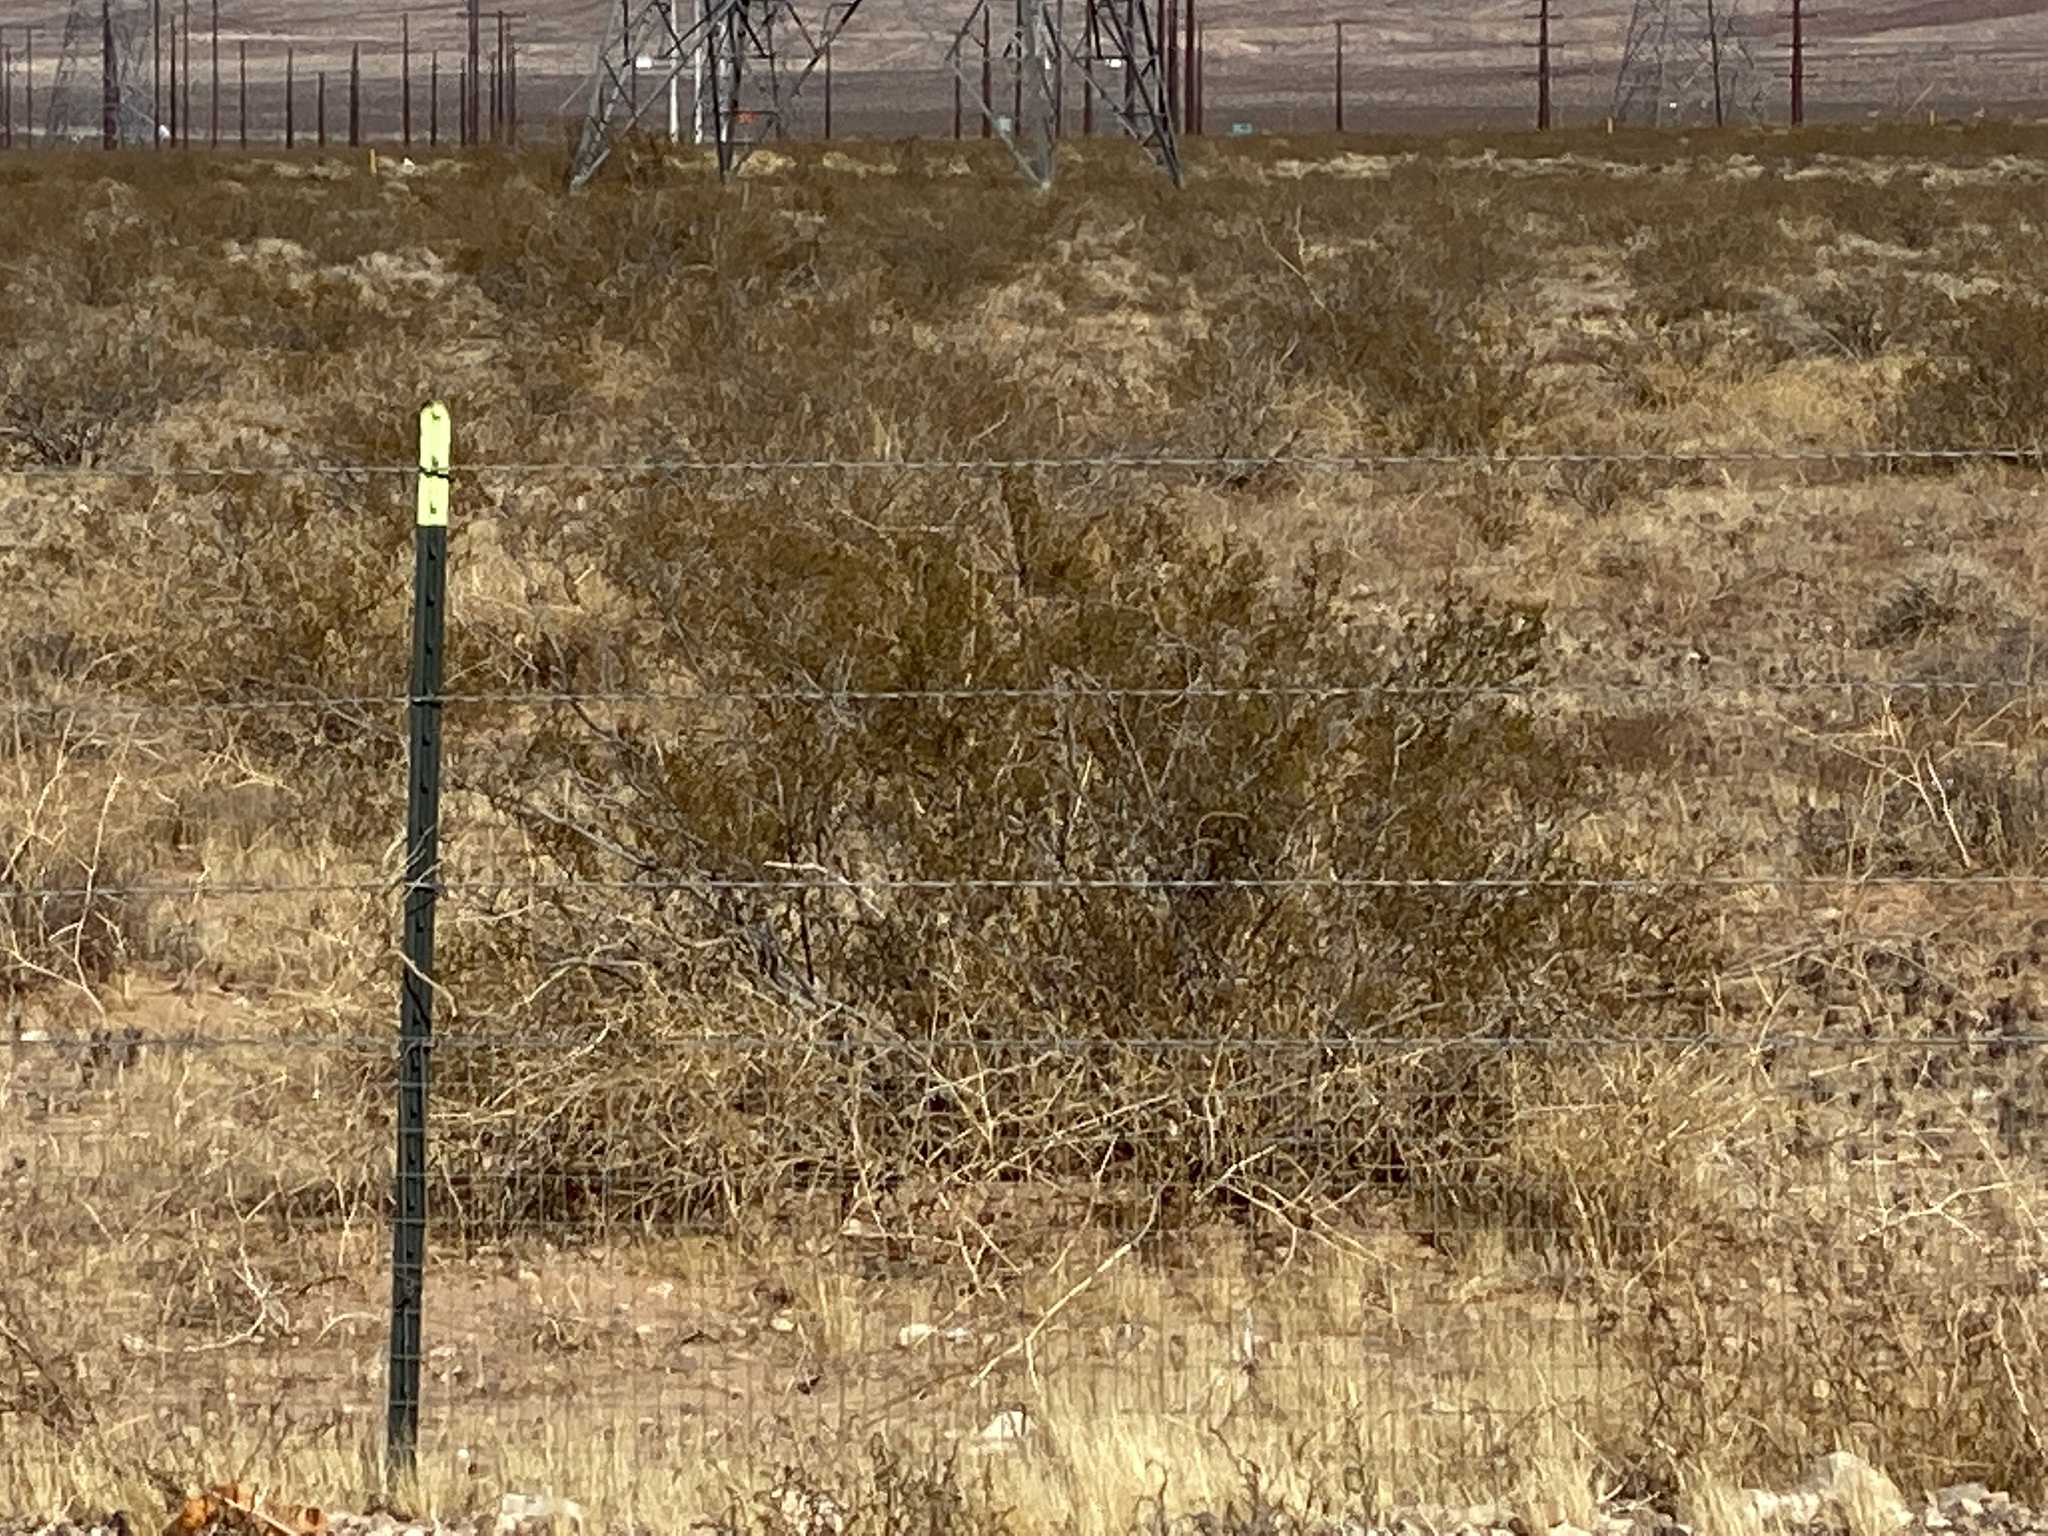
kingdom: Plantae
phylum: Tracheophyta
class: Magnoliopsida
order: Zygophyllales
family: Zygophyllaceae
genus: Larrea
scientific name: Larrea tridentata
